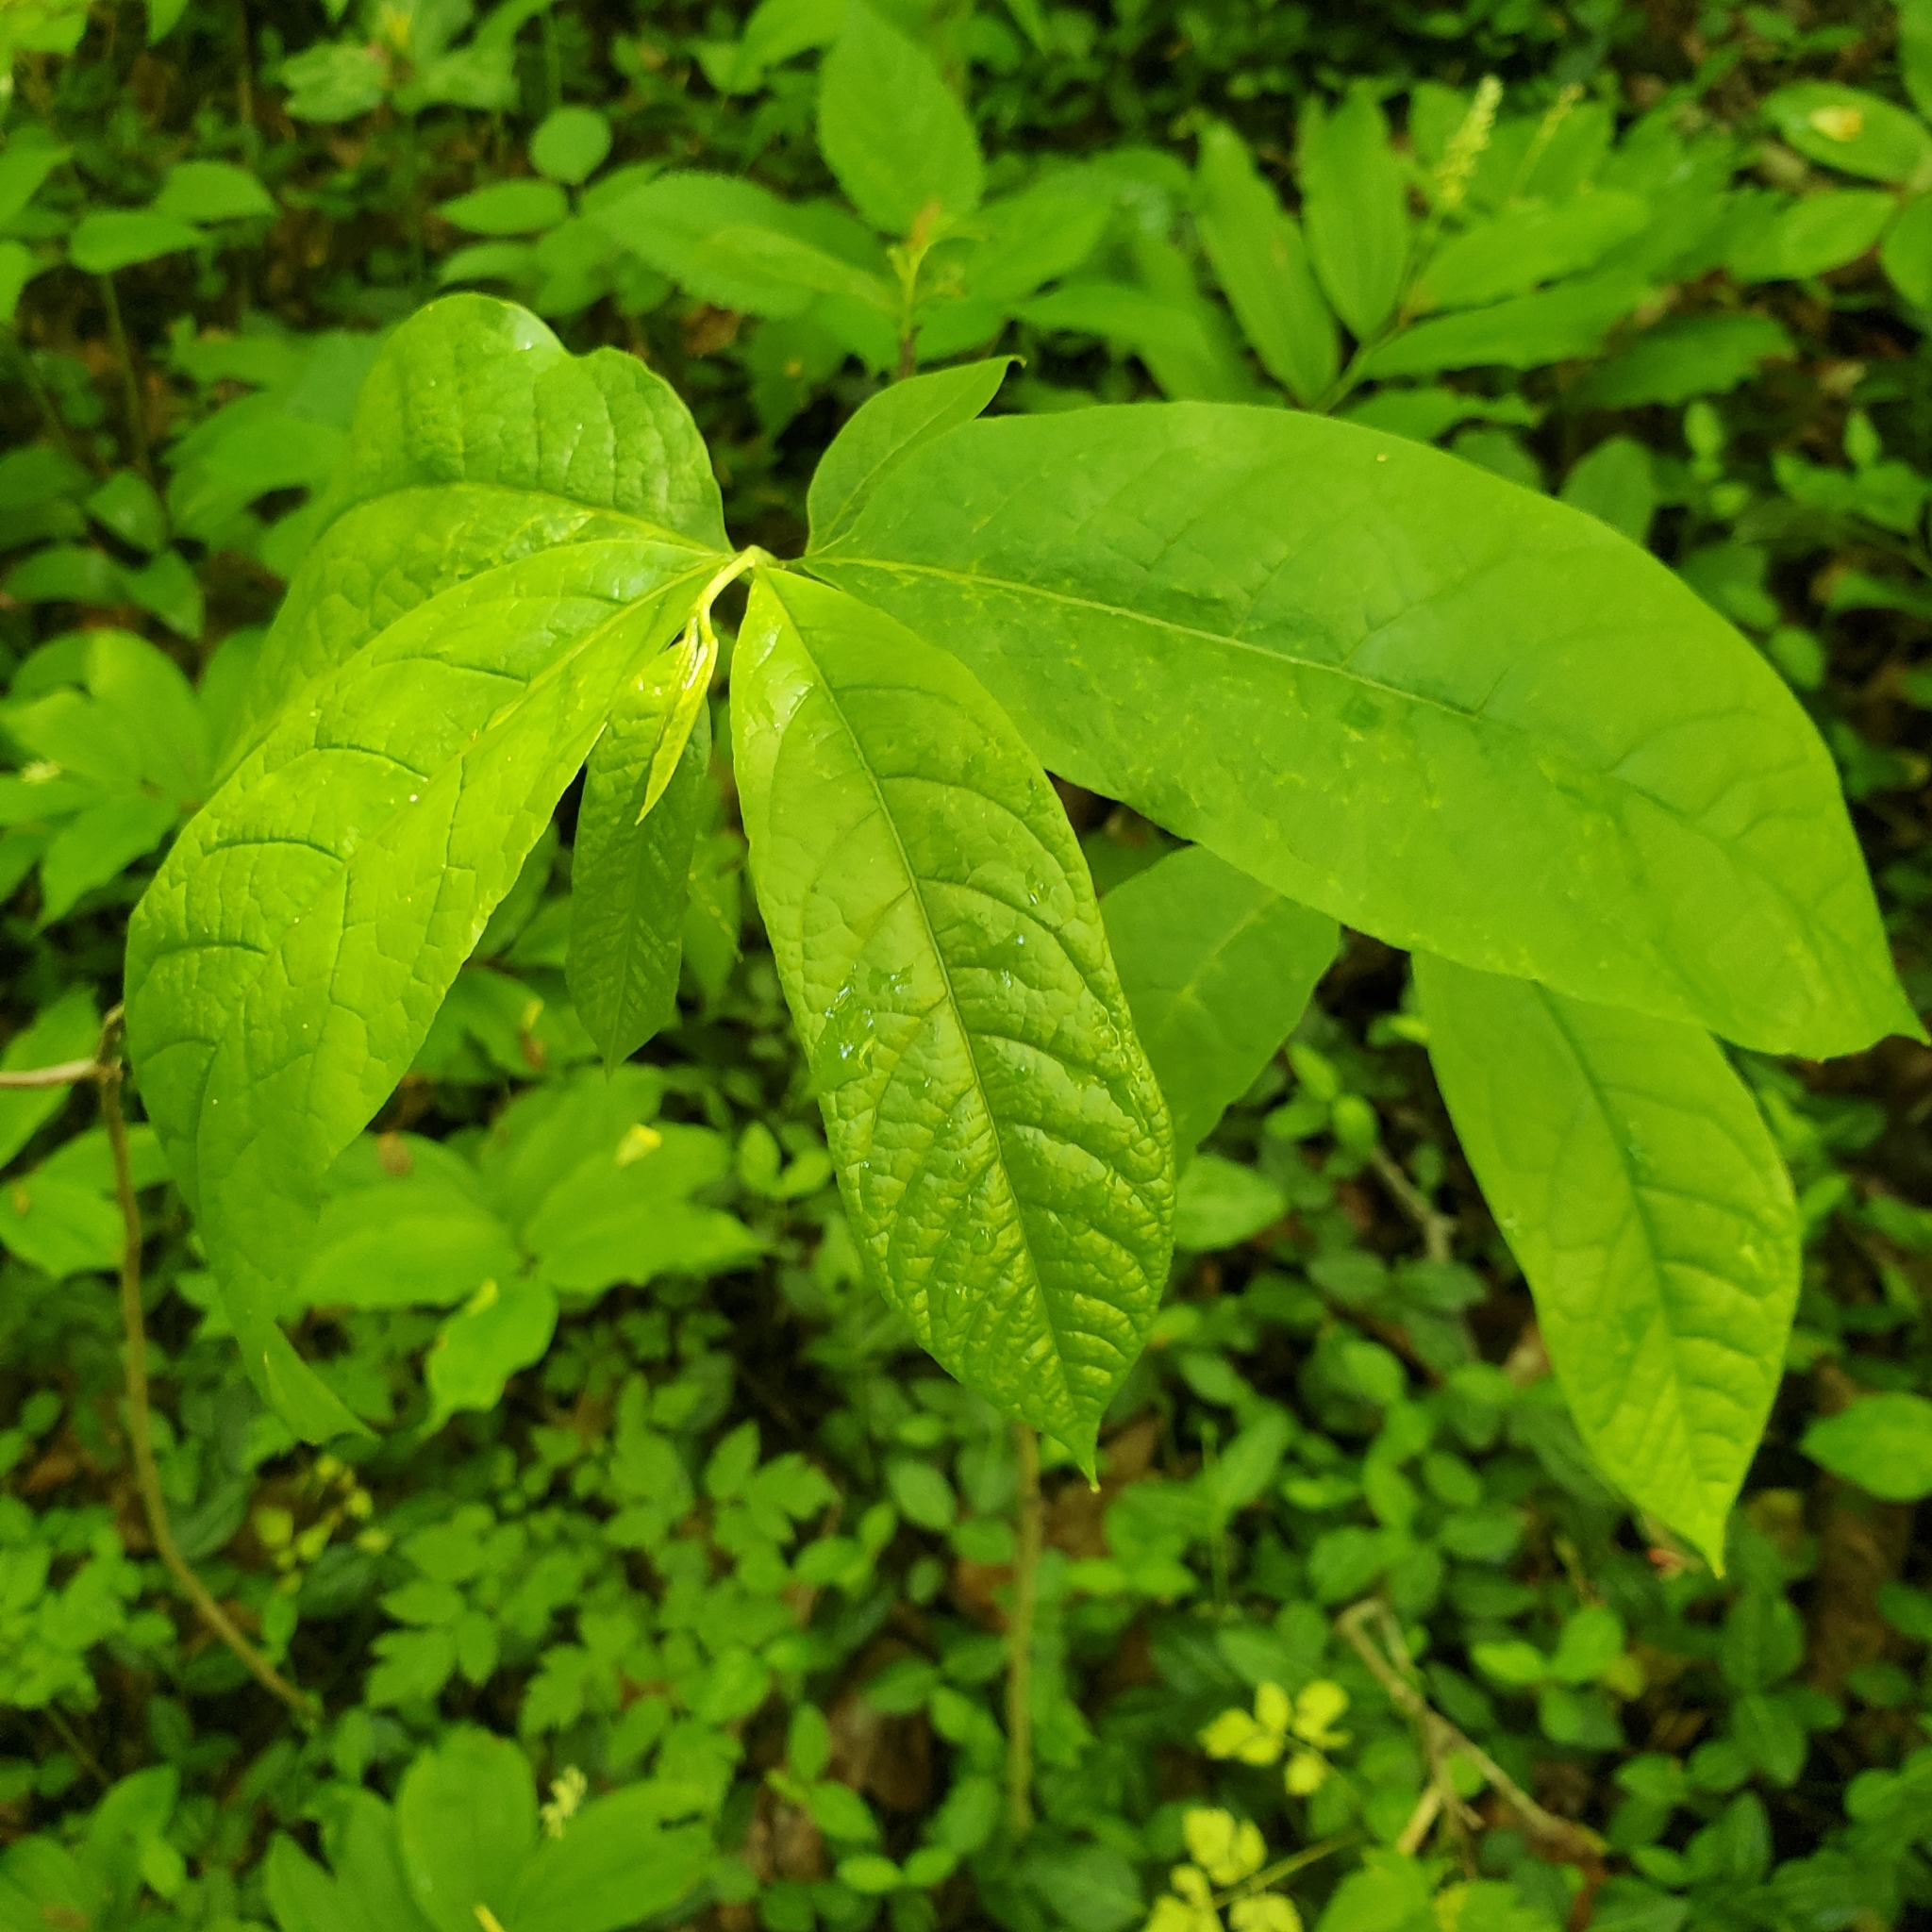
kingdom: Plantae
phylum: Tracheophyta
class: Magnoliopsida
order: Magnoliales
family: Annonaceae
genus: Asimina
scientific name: Asimina triloba
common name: Dog-banana
